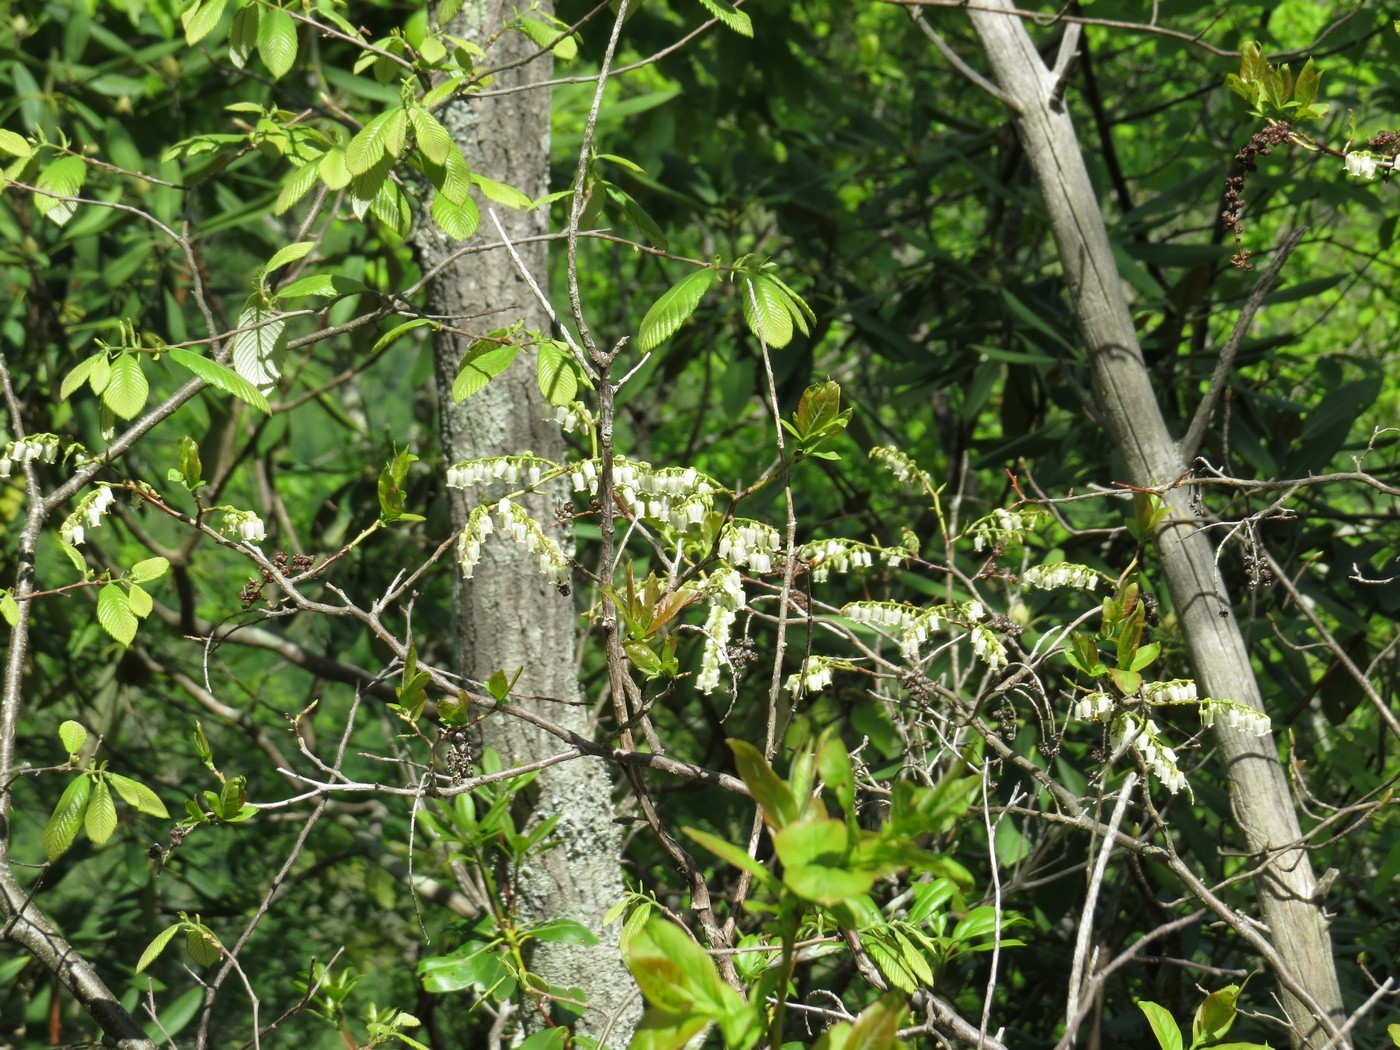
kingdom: Plantae
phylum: Tracheophyta
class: Magnoliopsida
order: Ericales
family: Ericaceae
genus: Eubotrys
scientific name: Eubotrys recurva
